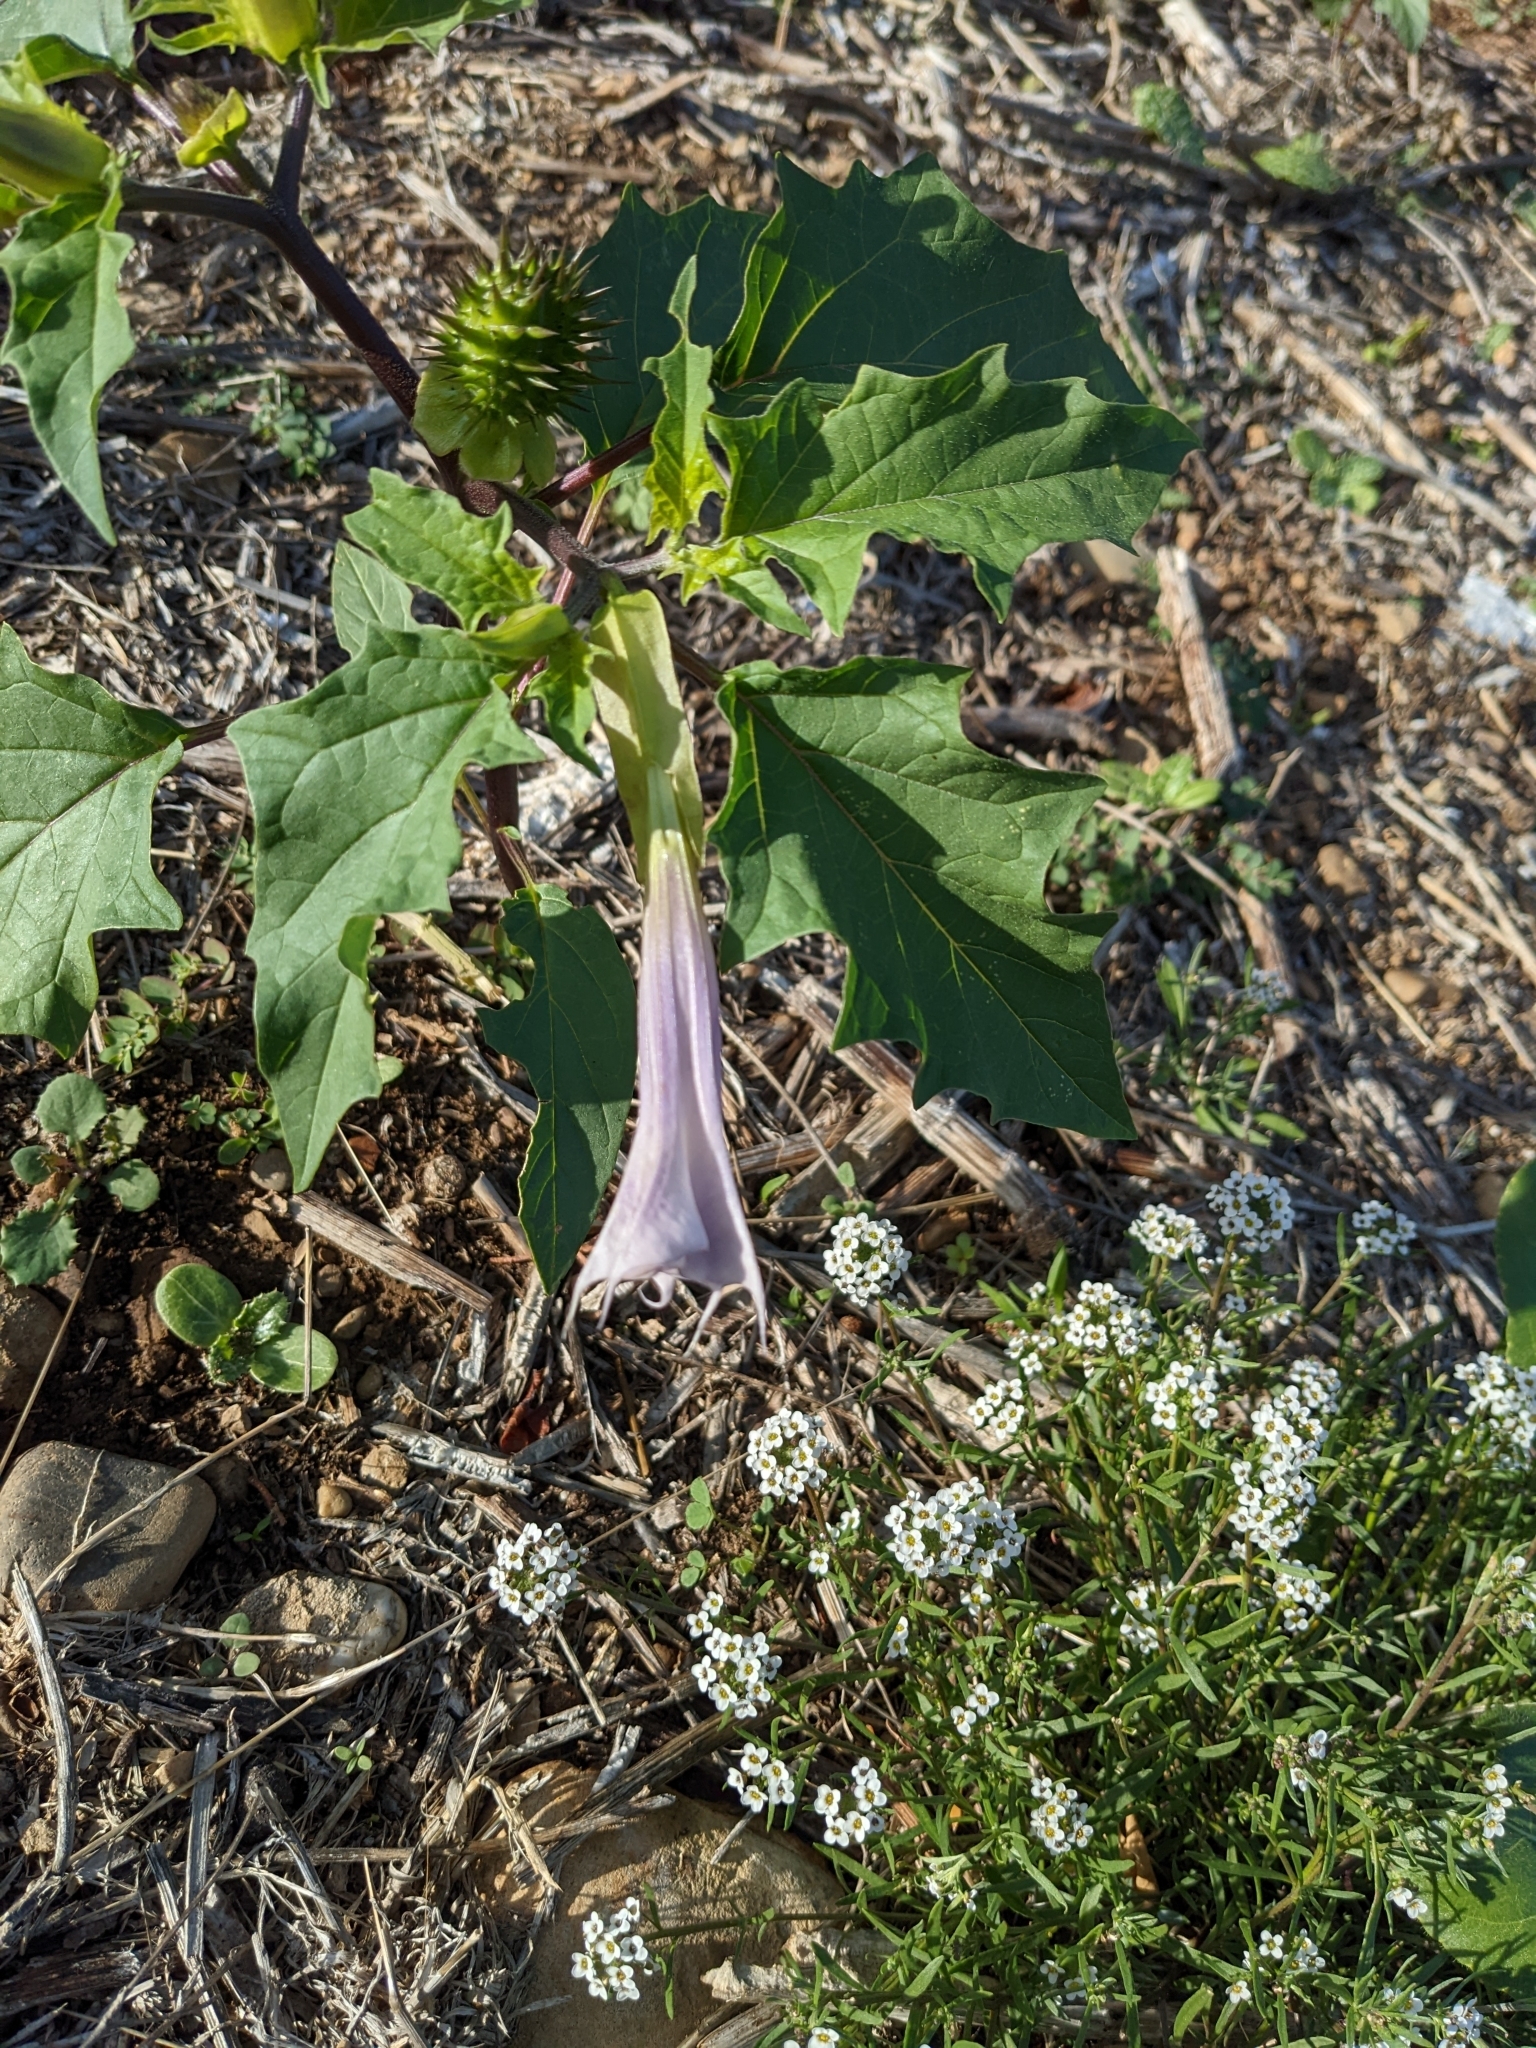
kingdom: Plantae
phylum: Tracheophyta
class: Magnoliopsida
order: Solanales
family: Solanaceae
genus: Datura
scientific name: Datura stramonium
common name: Thorn-apple
